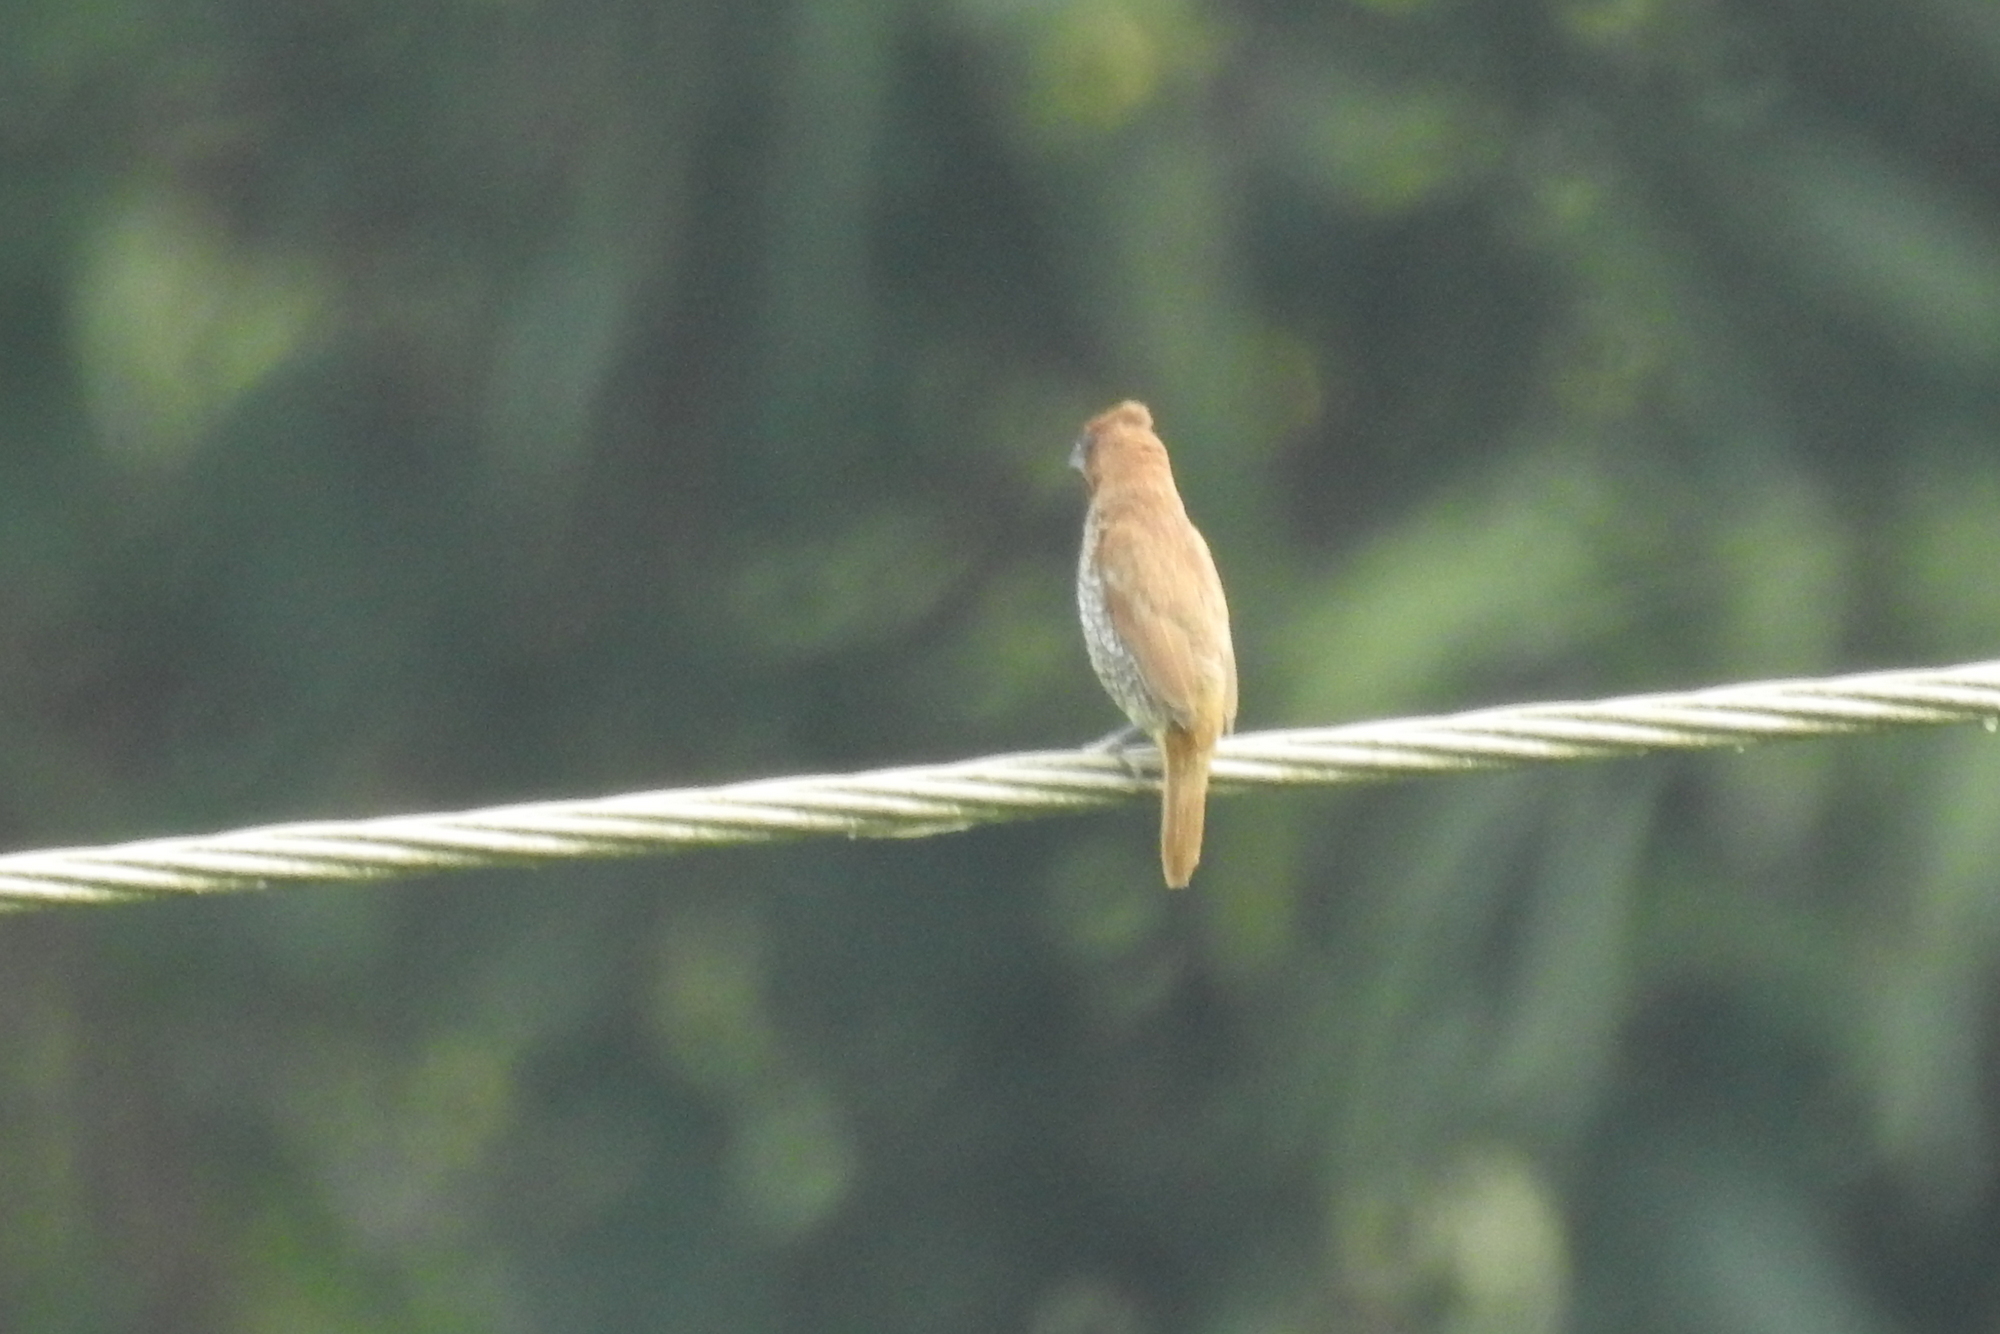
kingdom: Animalia
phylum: Chordata
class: Aves
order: Passeriformes
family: Estrildidae
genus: Lonchura
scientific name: Lonchura punctulata
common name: Scaly-breasted munia
